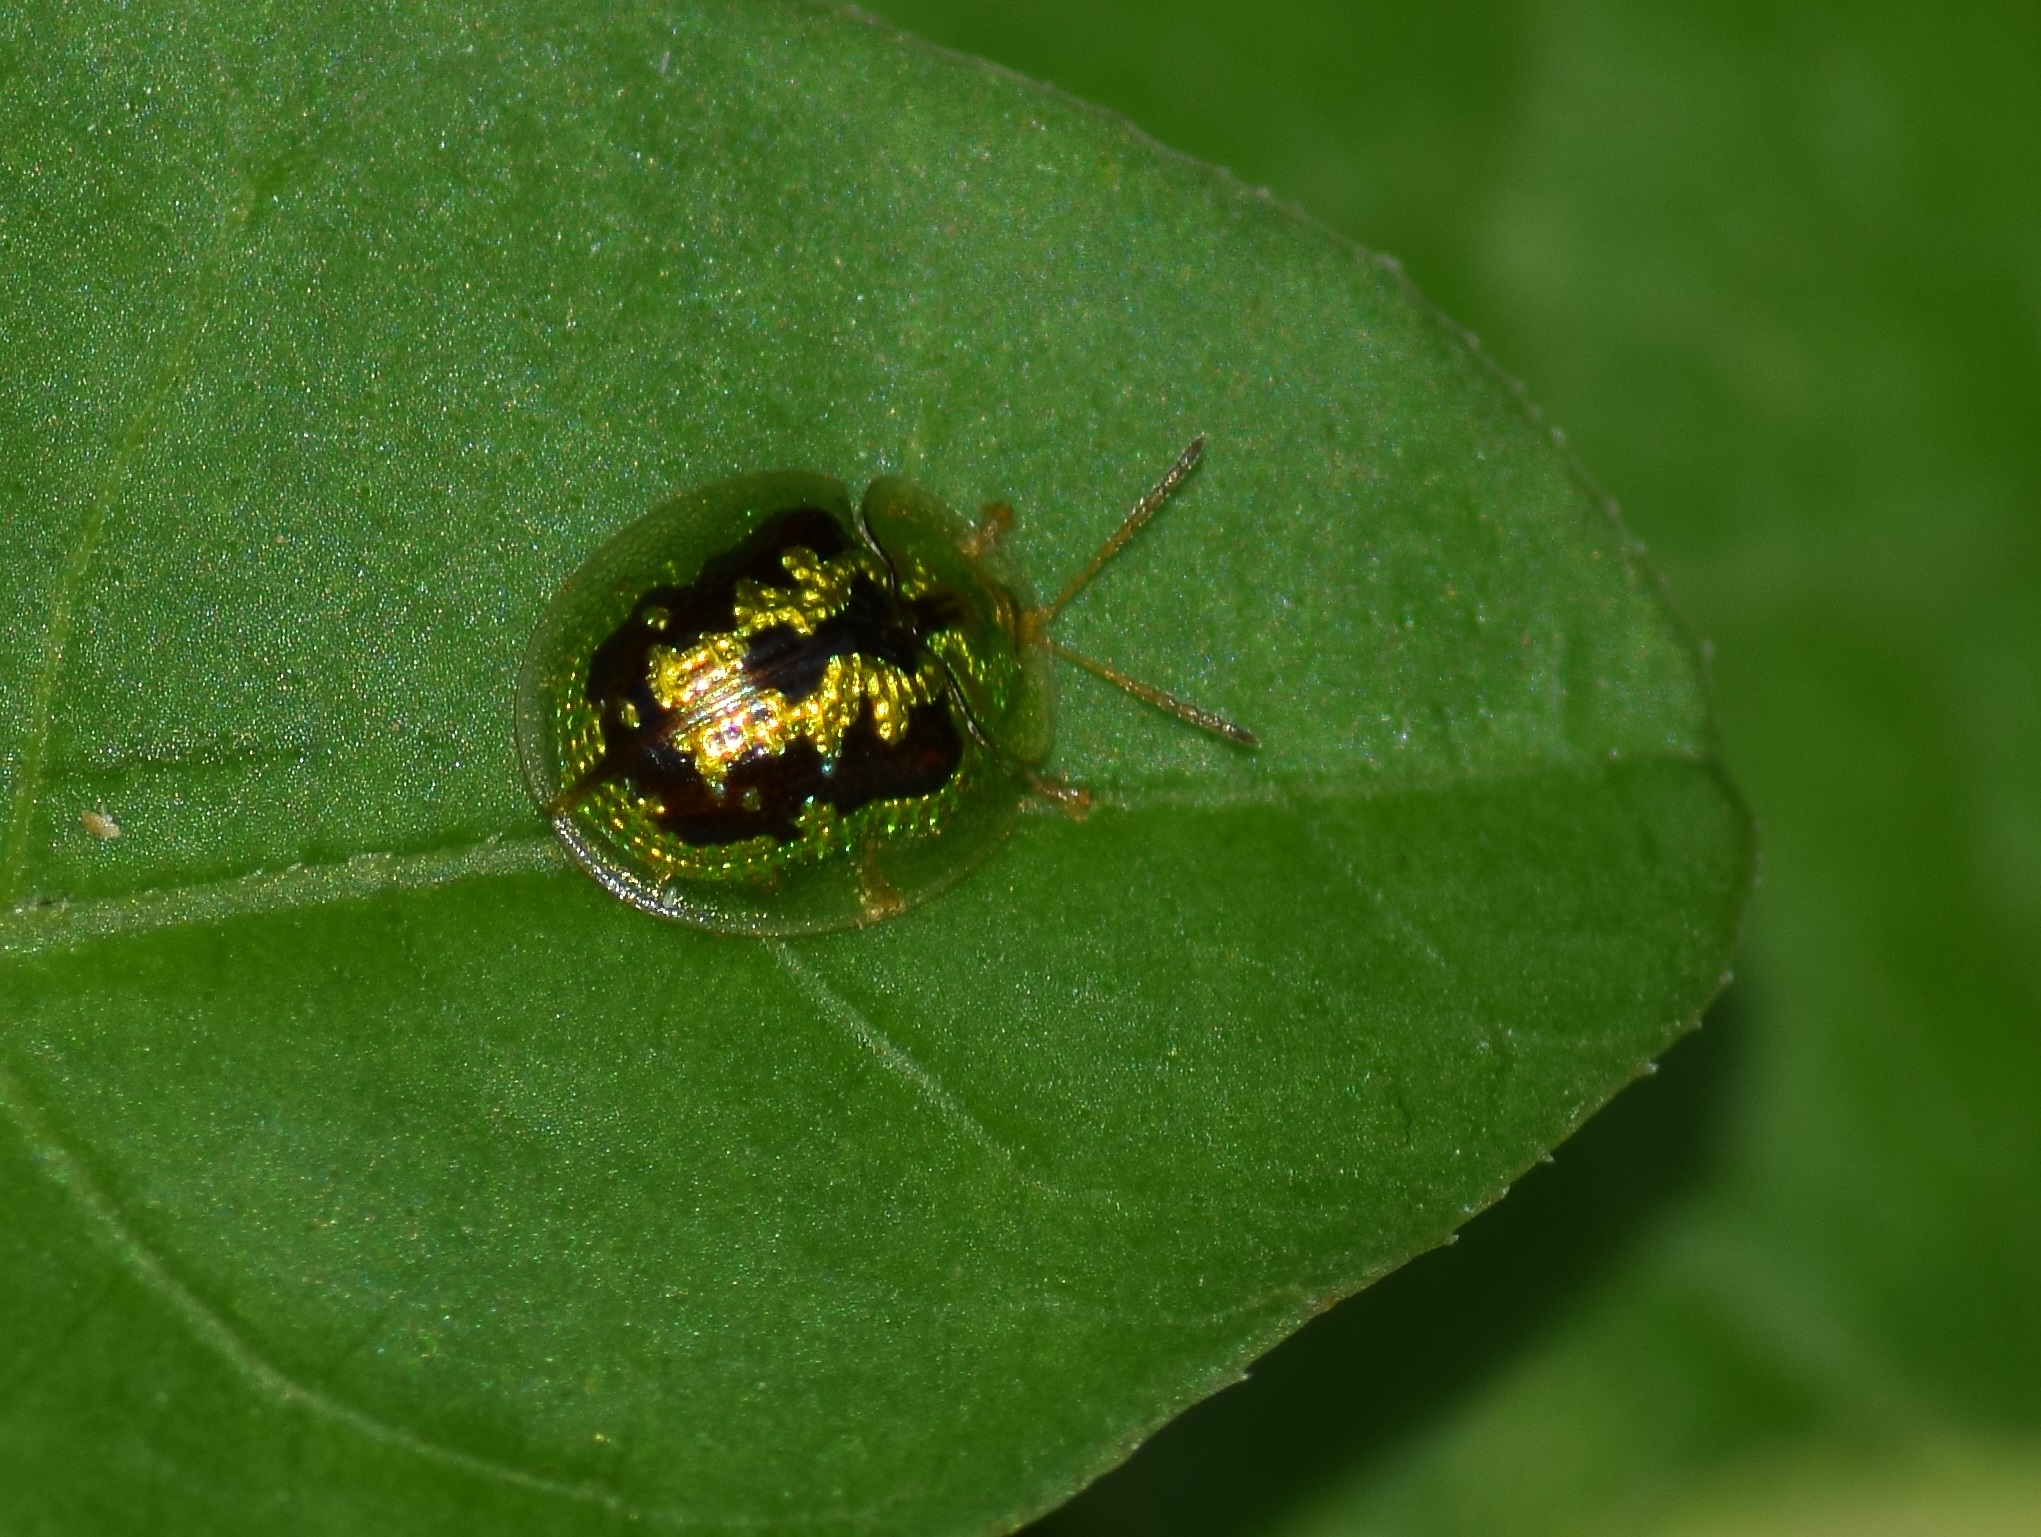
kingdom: Animalia
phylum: Arthropoda
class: Insecta
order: Coleoptera
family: Chrysomelidae
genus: Cassida
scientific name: Cassida circumdata
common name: Tortoise beetle
